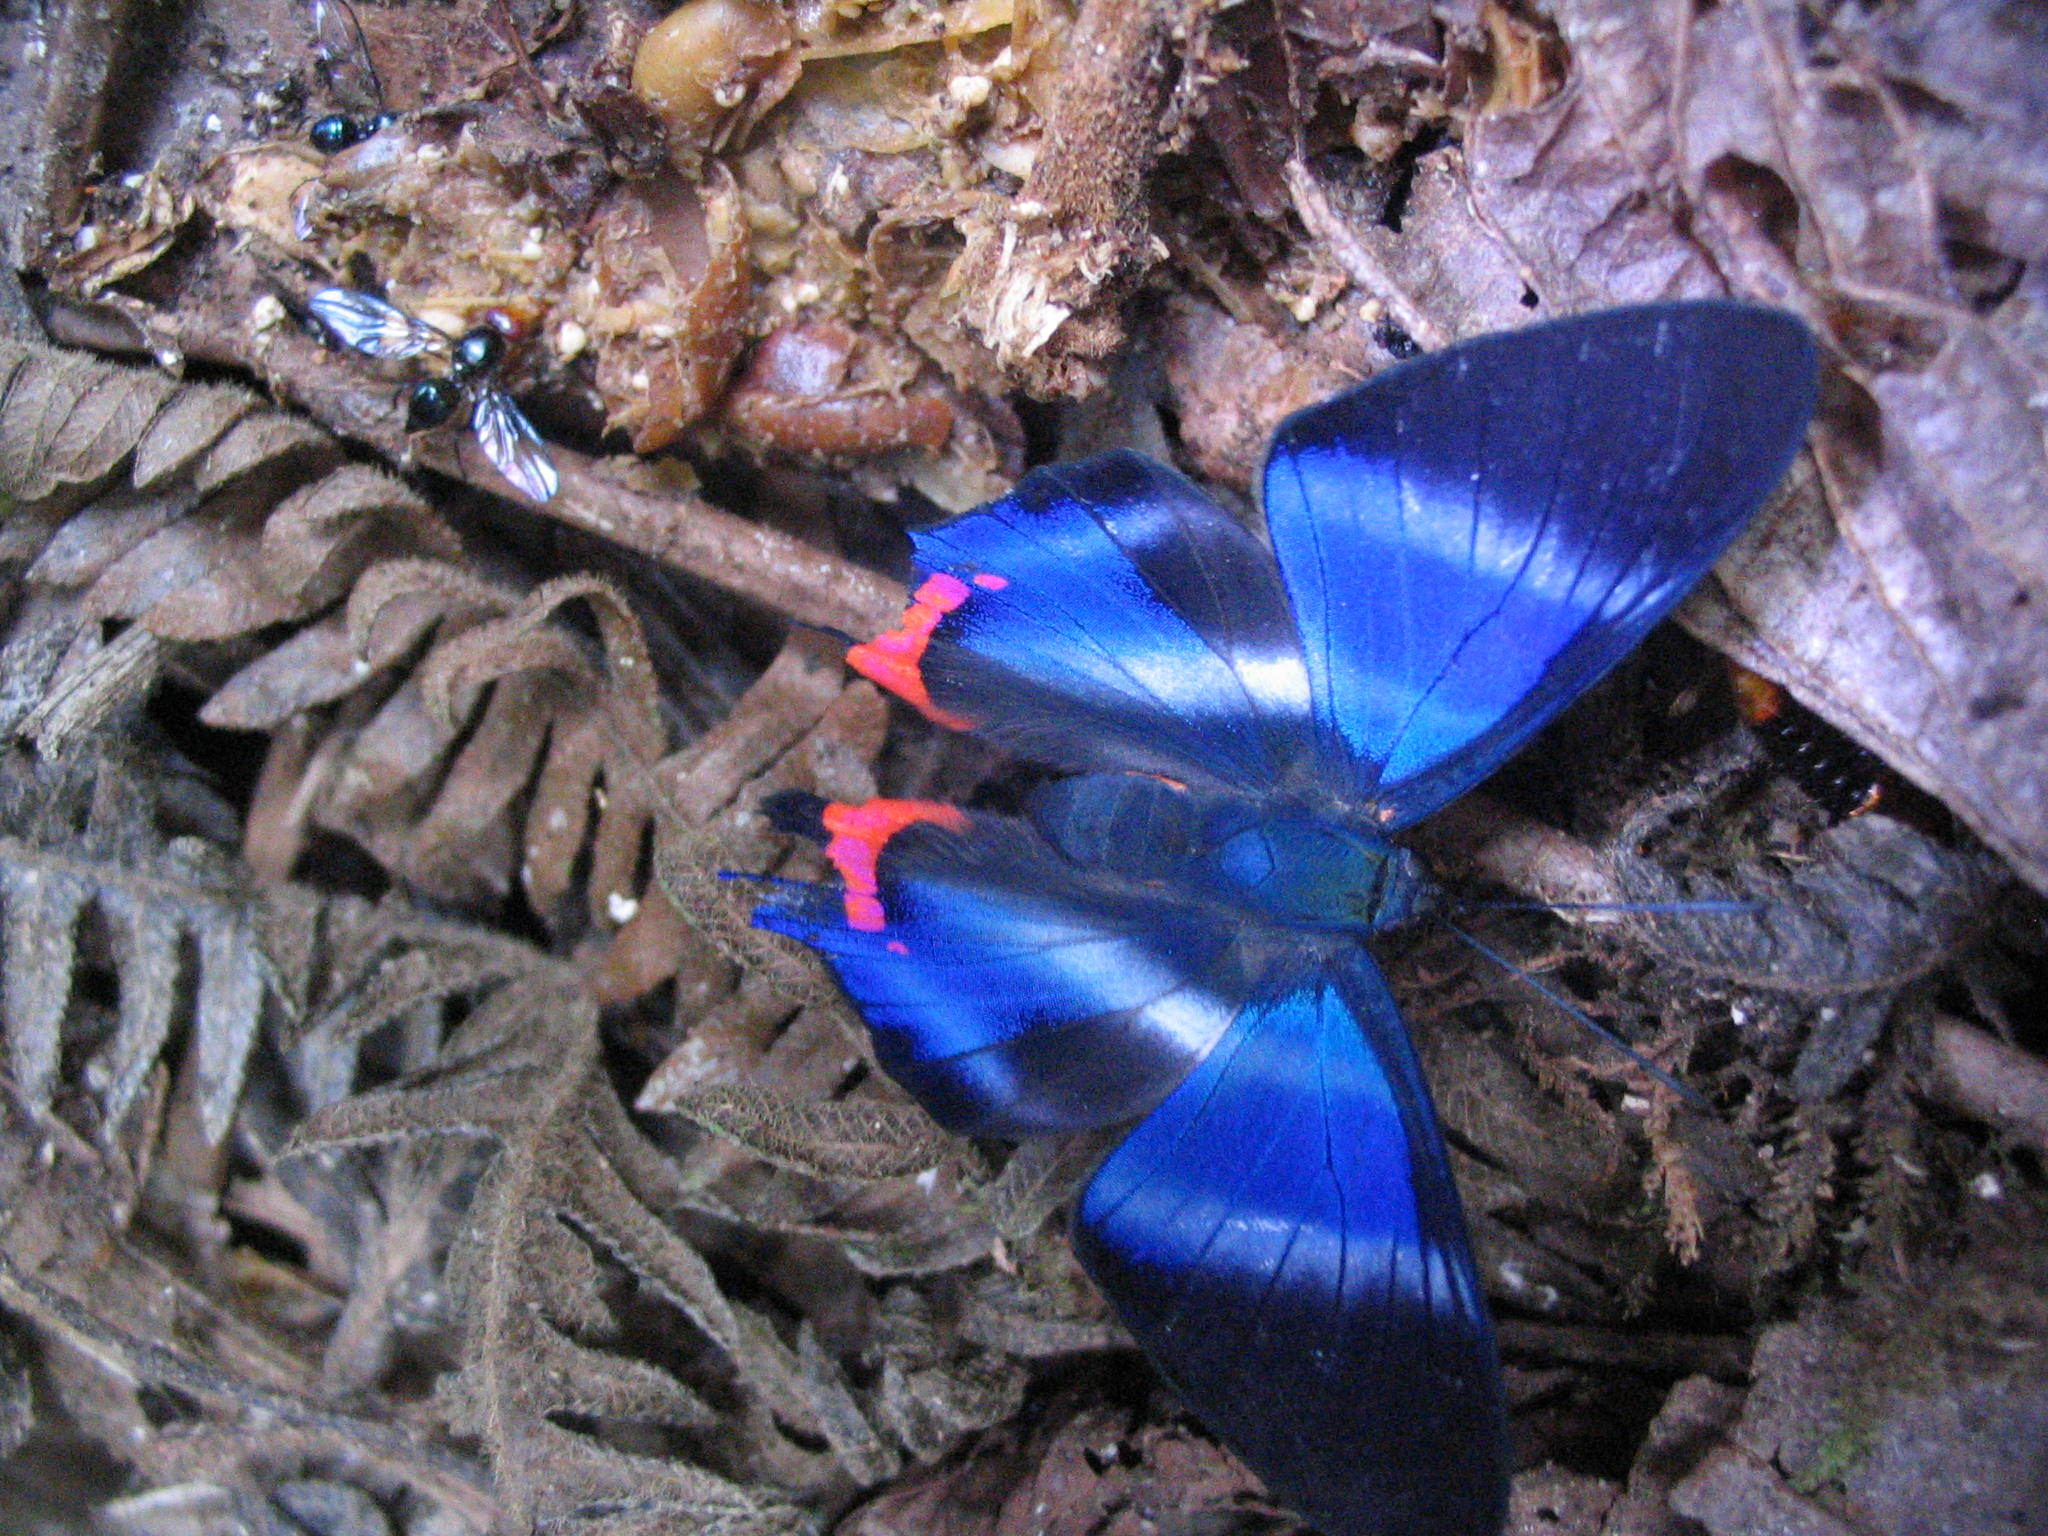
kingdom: Animalia
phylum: Arthropoda
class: Insecta
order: Lepidoptera
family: Riodinidae
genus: Rhetus
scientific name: Rhetus dysonii
